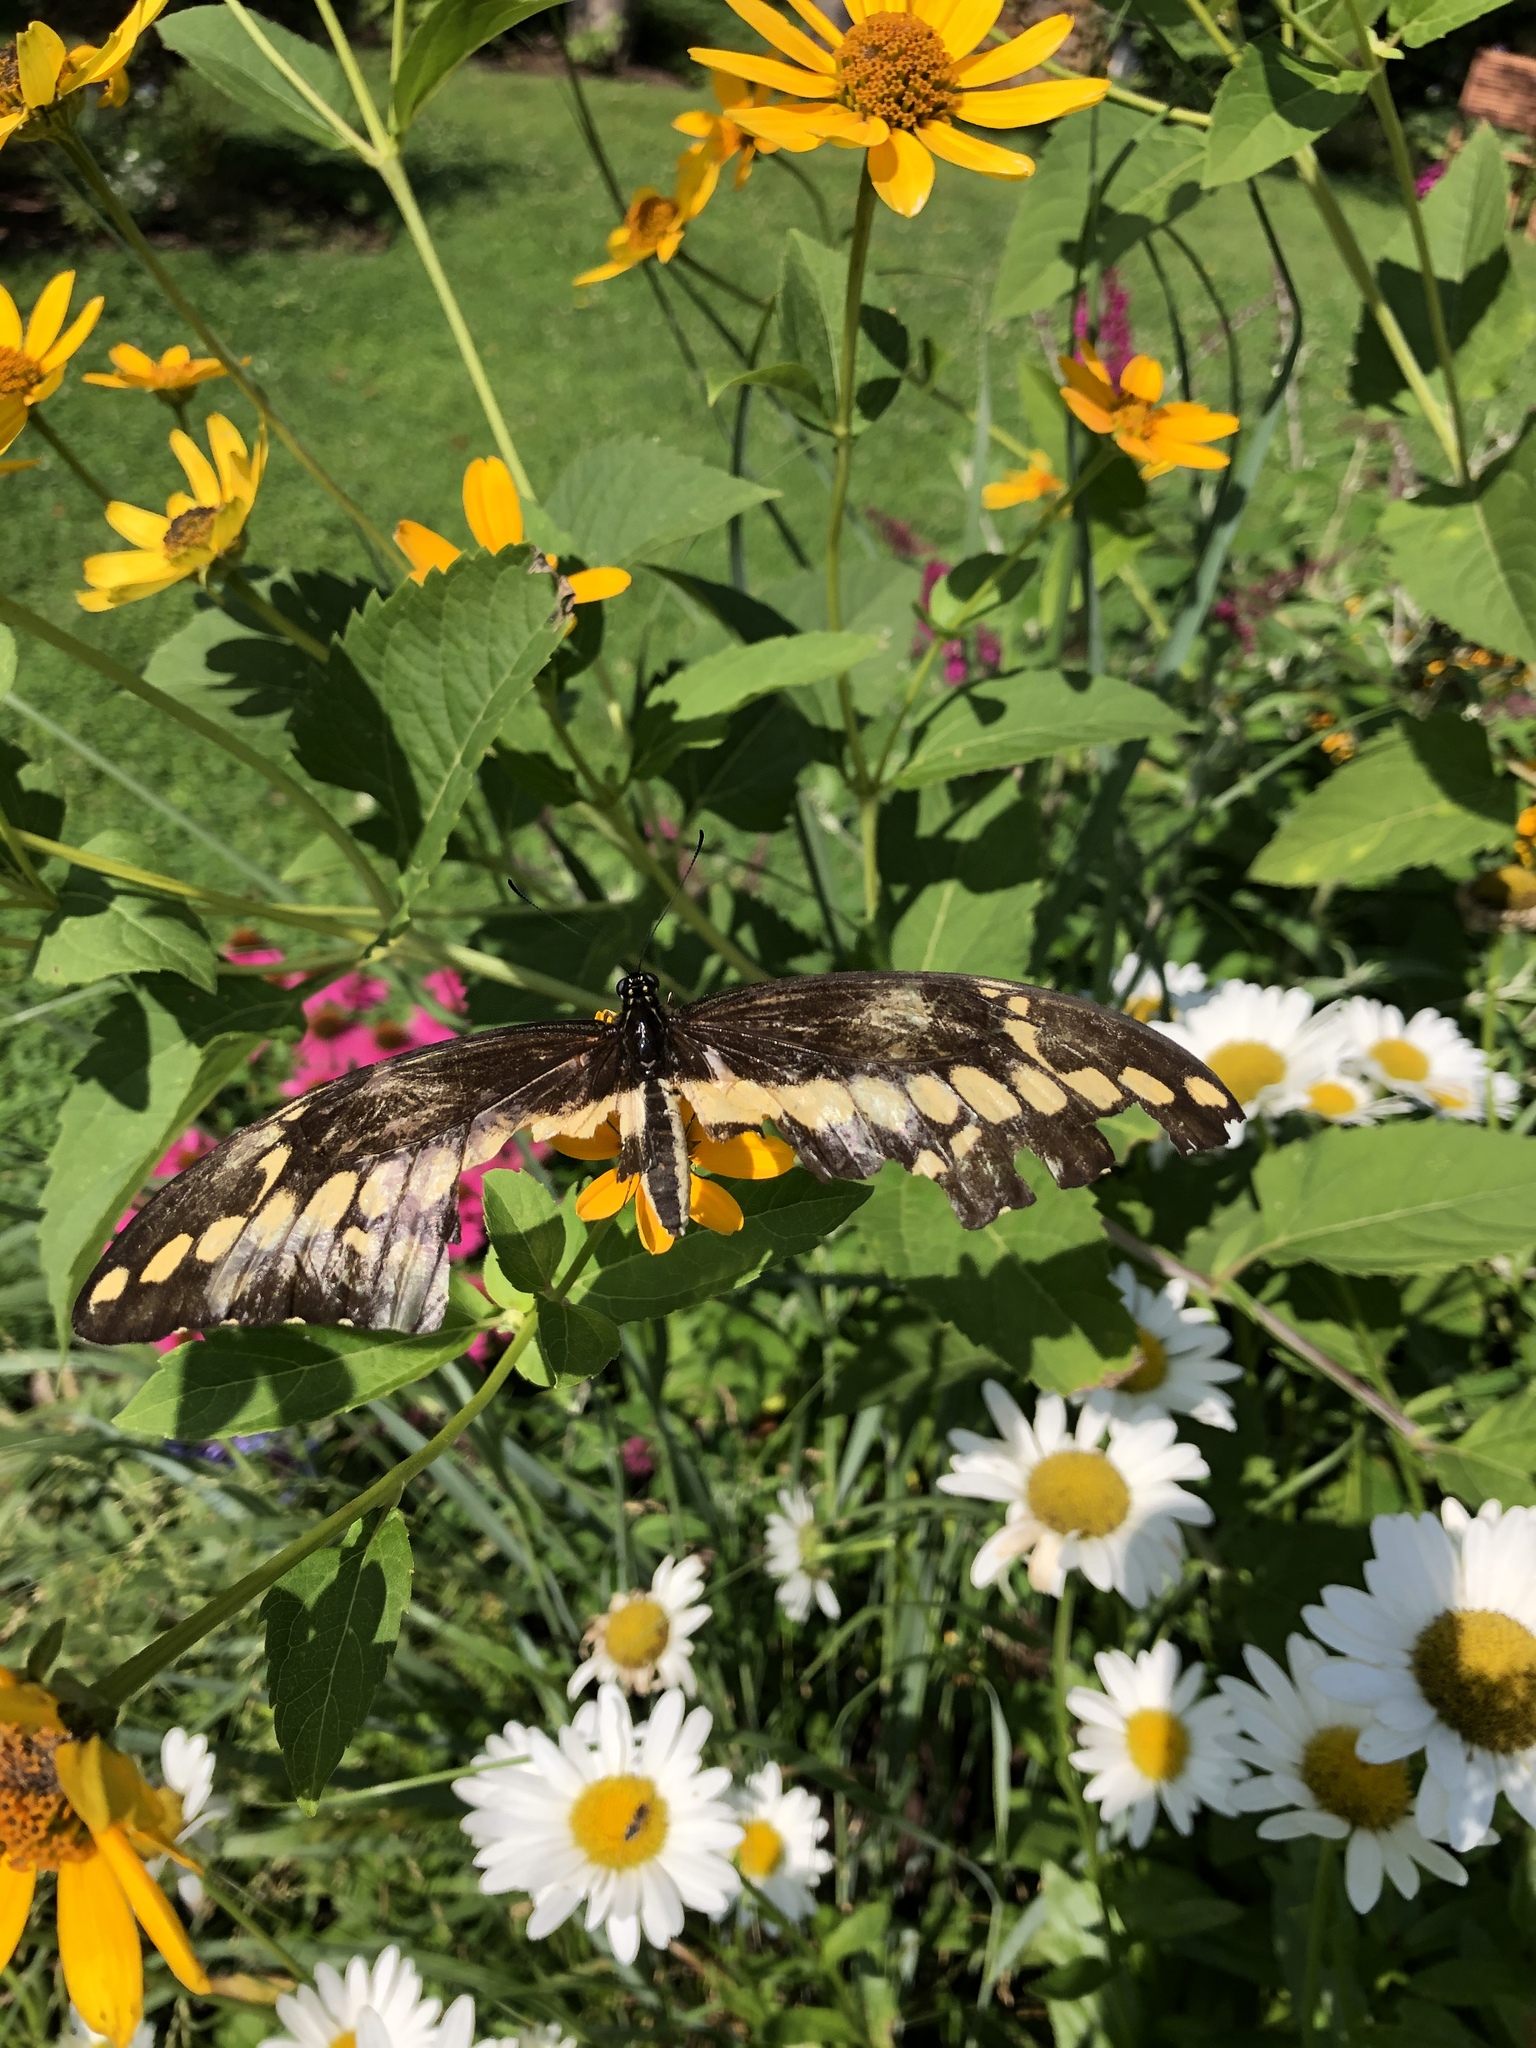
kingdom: Animalia
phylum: Arthropoda
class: Insecta
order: Lepidoptera
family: Papilionidae
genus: Papilio
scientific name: Papilio cresphontes
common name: Giant swallowtail
